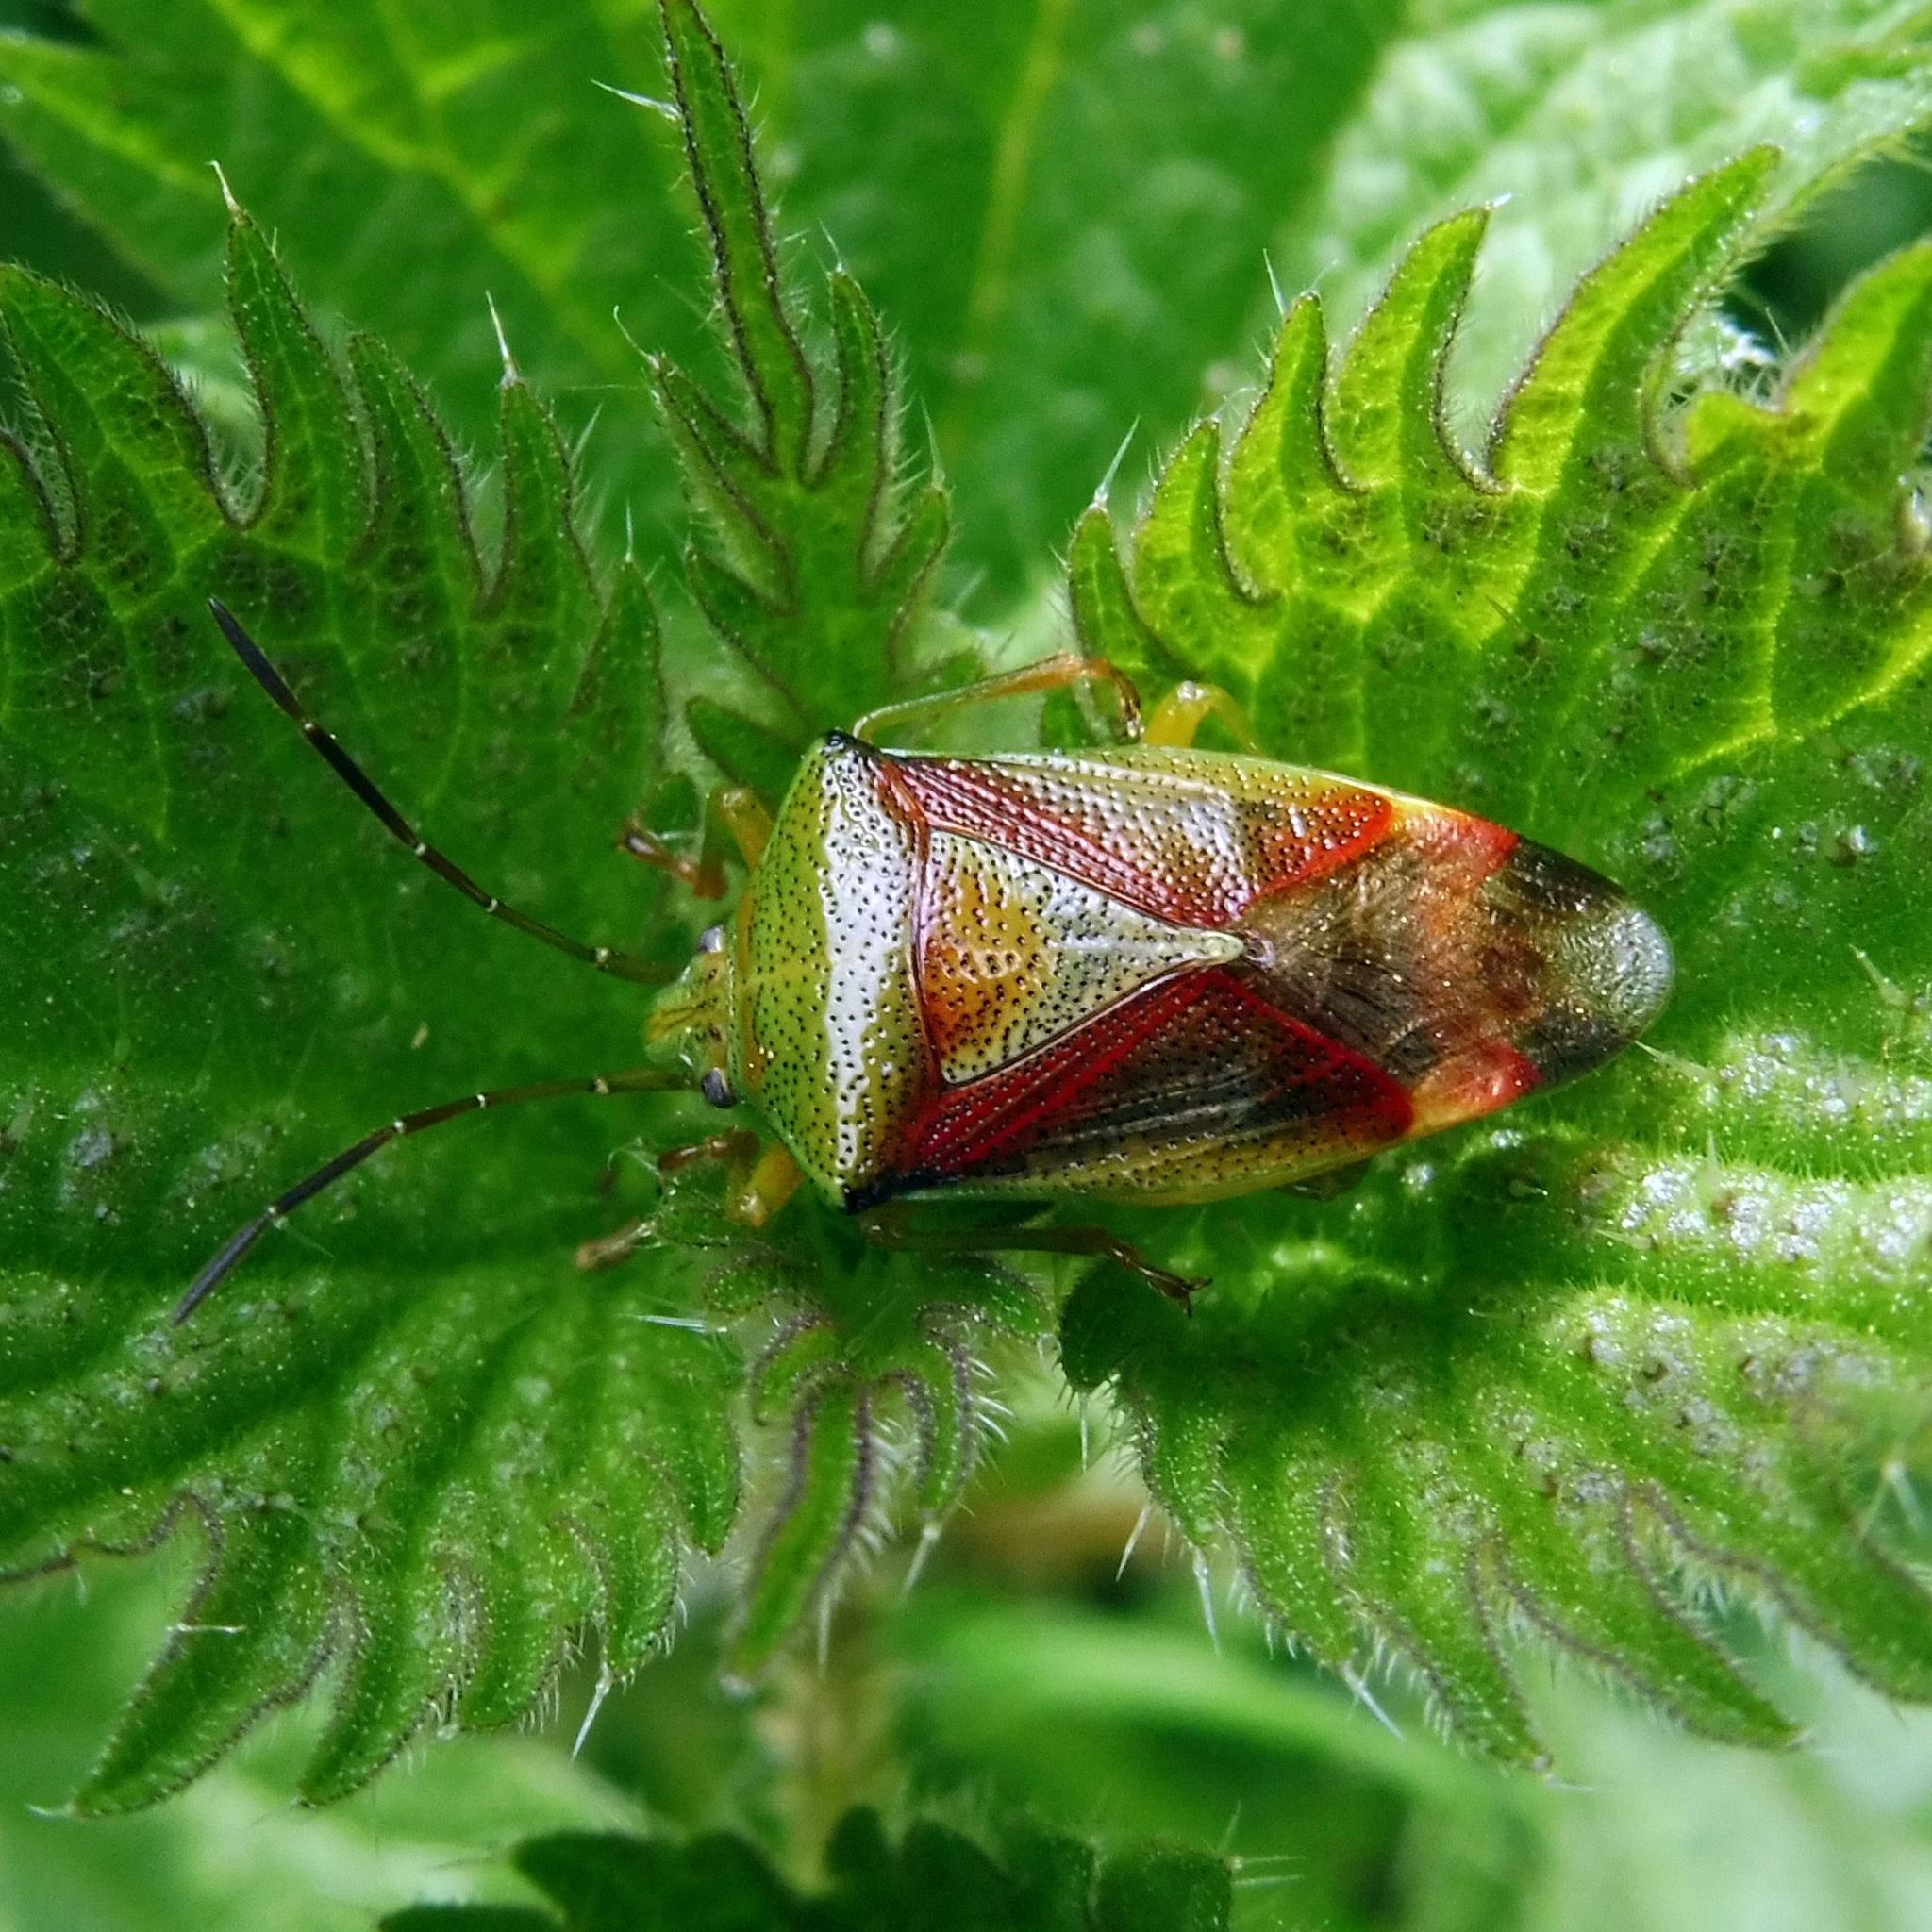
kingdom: Animalia
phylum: Arthropoda
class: Insecta
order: Hemiptera
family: Acanthosomatidae
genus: Elasmostethus
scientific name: Elasmostethus interstinctus
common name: Birch shieldbug
